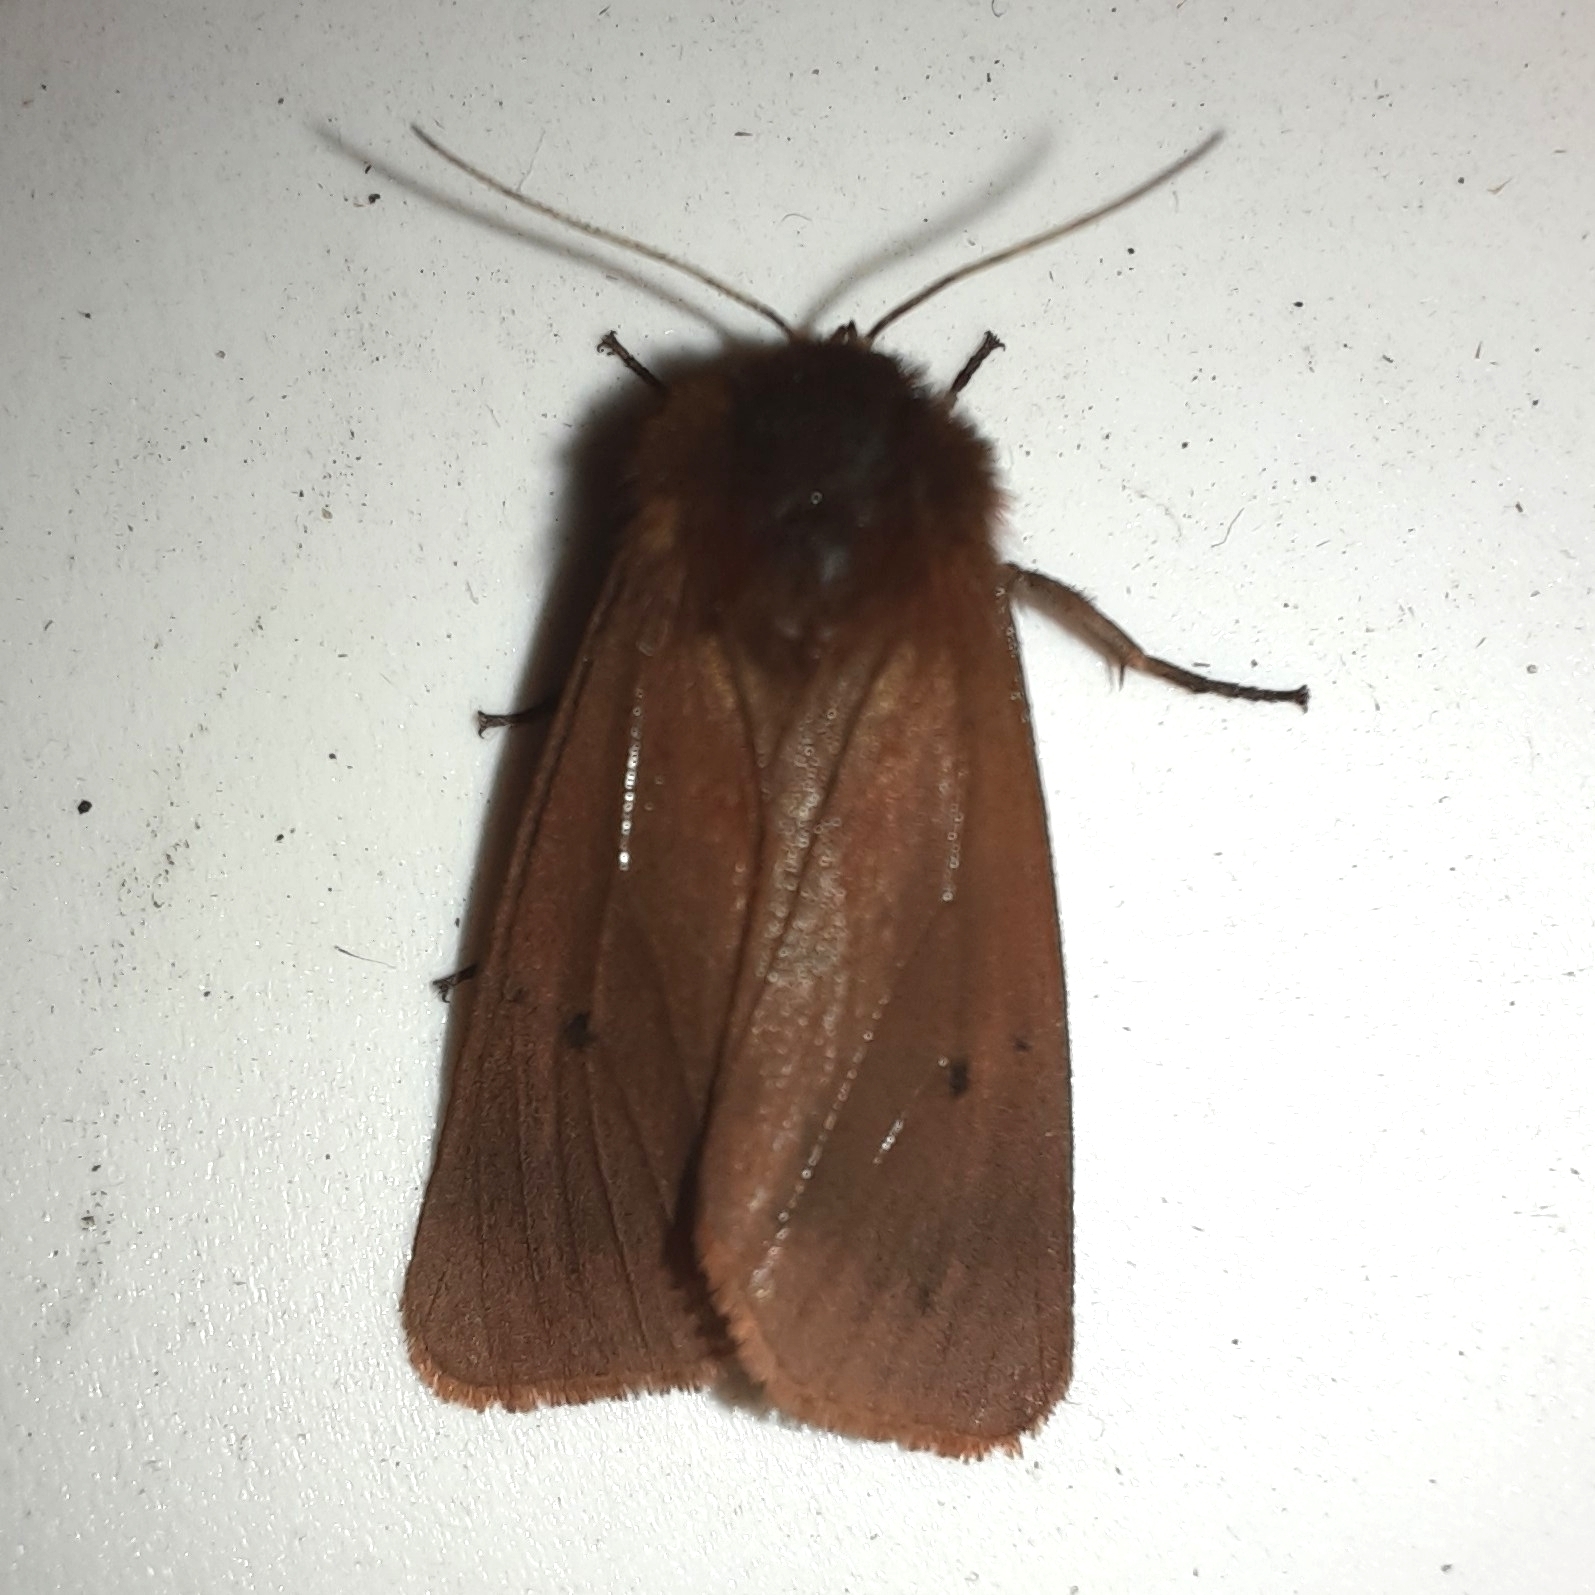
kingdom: Animalia
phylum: Arthropoda
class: Insecta
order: Lepidoptera
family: Erebidae
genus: Phragmatobia
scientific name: Phragmatobia fuliginosa
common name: Ruby tiger
